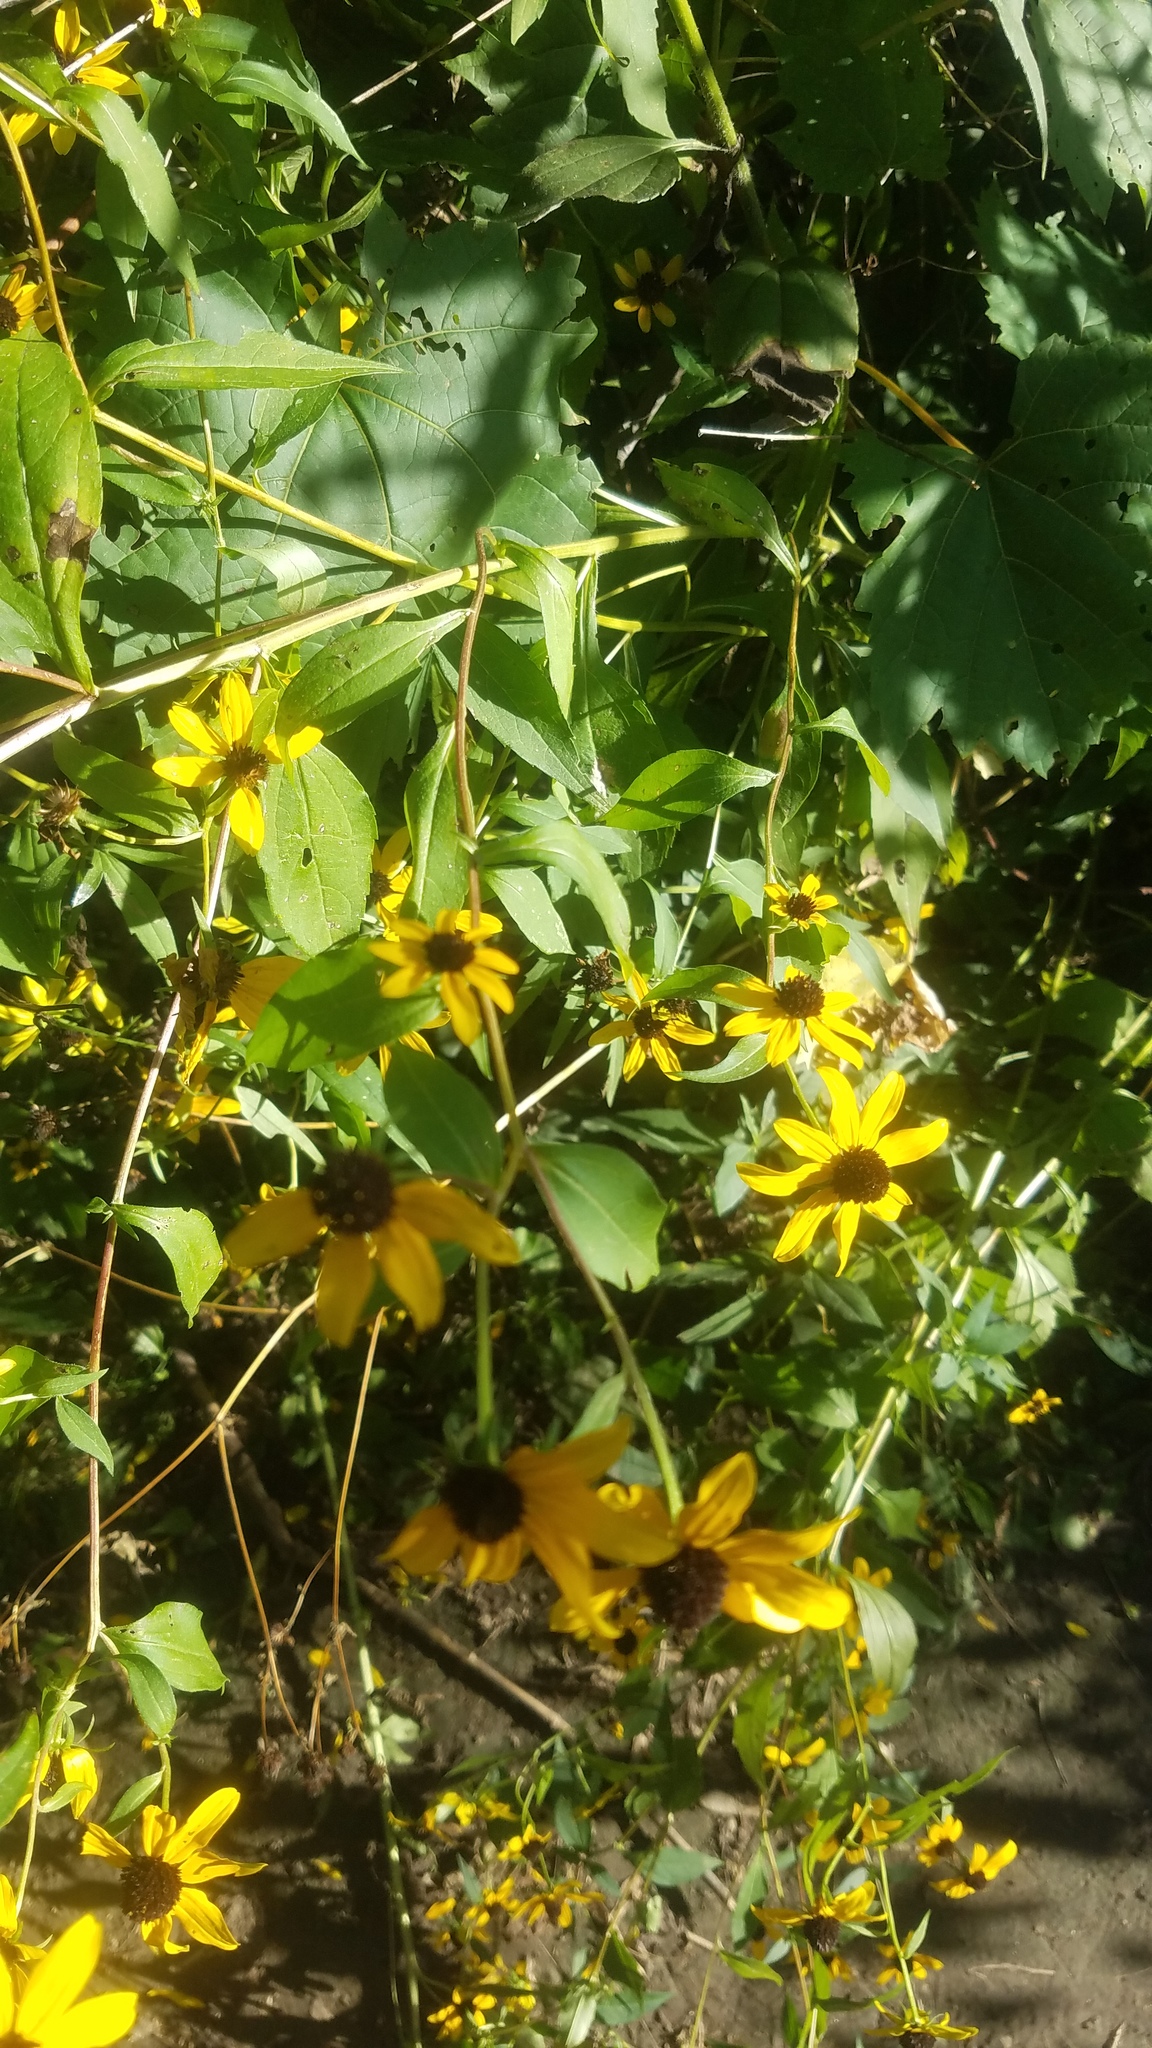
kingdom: Plantae
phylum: Tracheophyta
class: Magnoliopsida
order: Asterales
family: Asteraceae
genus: Rudbeckia
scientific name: Rudbeckia triloba
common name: Thin-leaved coneflower
